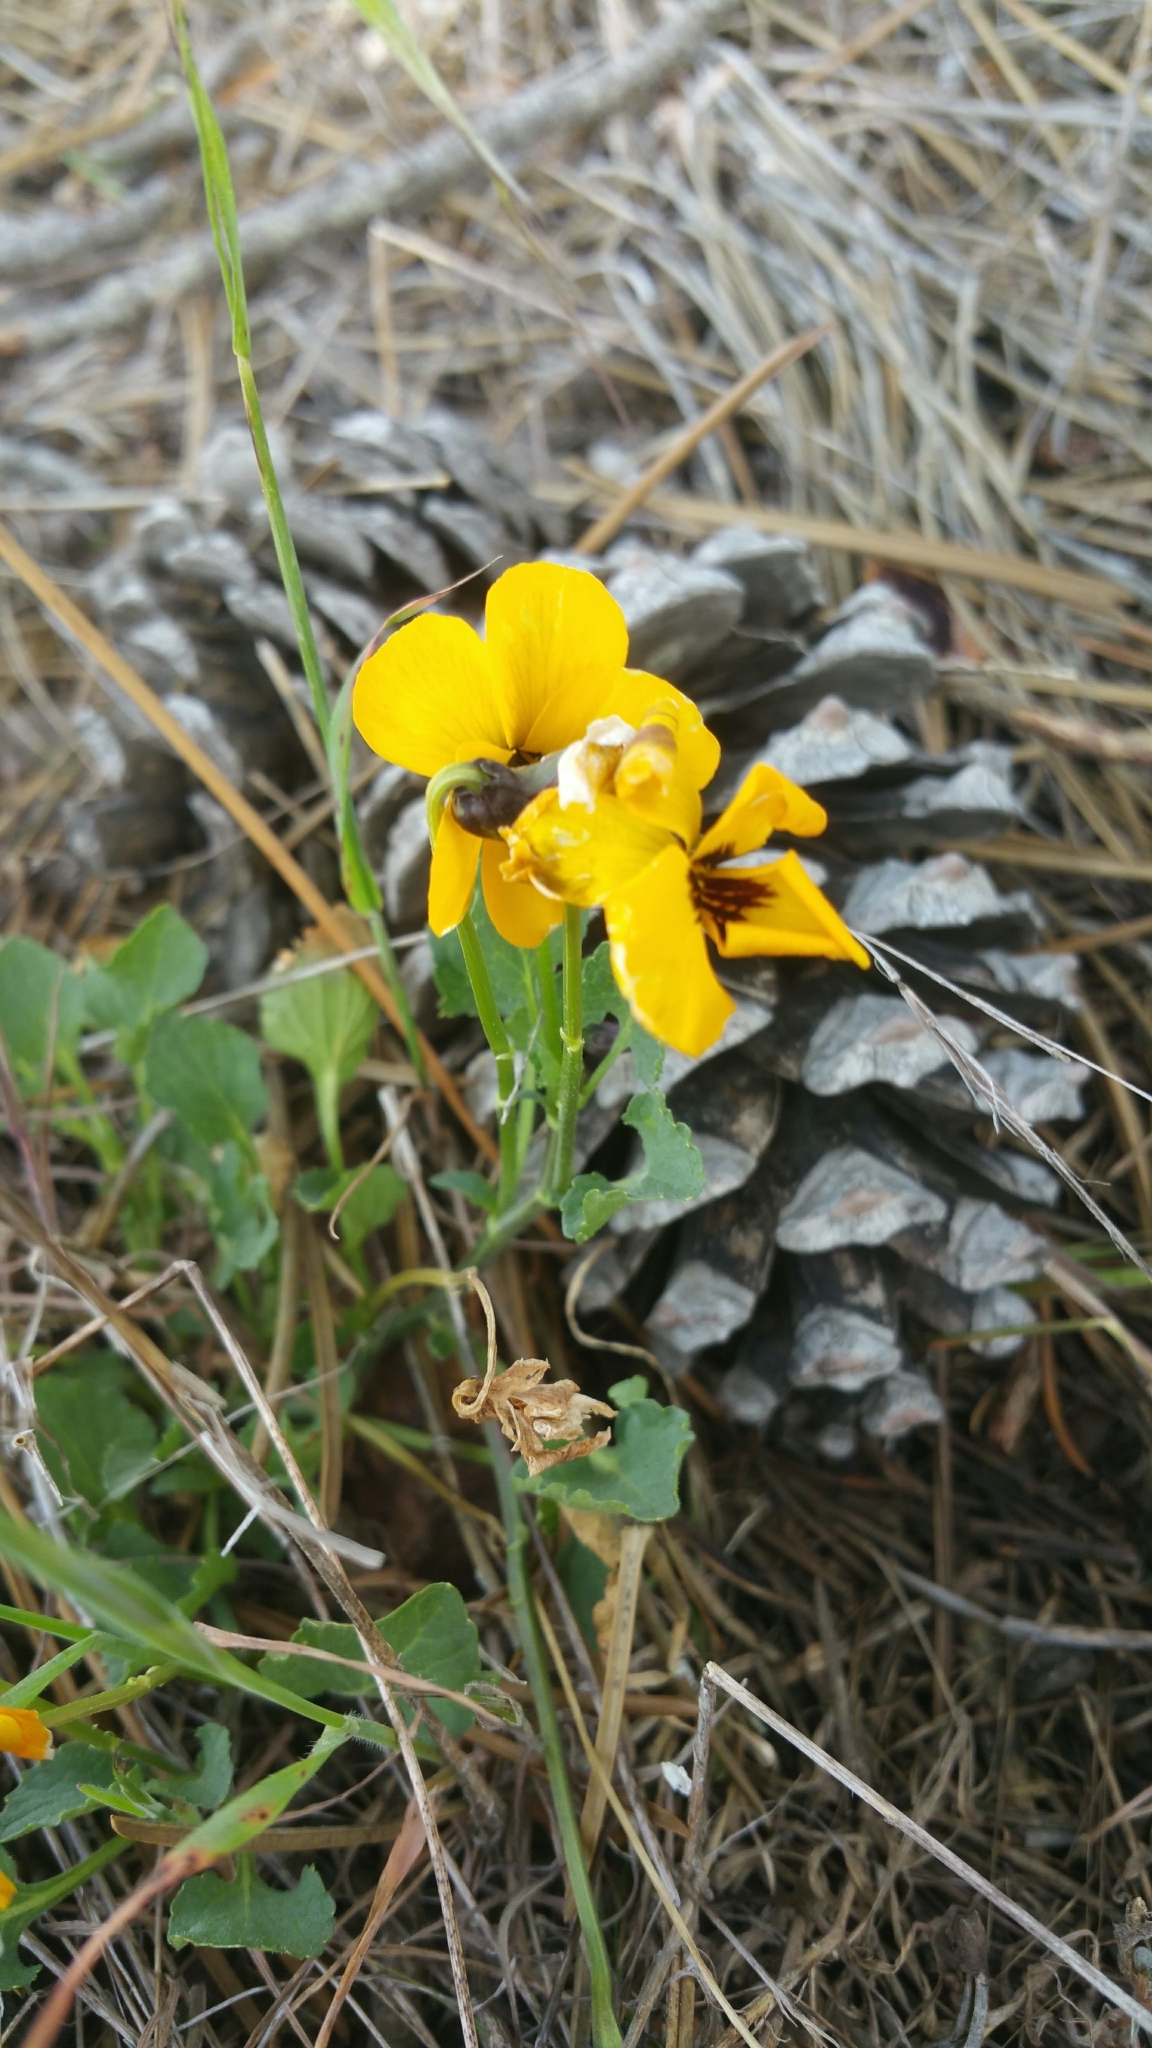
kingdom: Plantae
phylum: Tracheophyta
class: Magnoliopsida
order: Malpighiales
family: Violaceae
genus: Viola
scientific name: Viola pedunculata
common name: California golden violet
